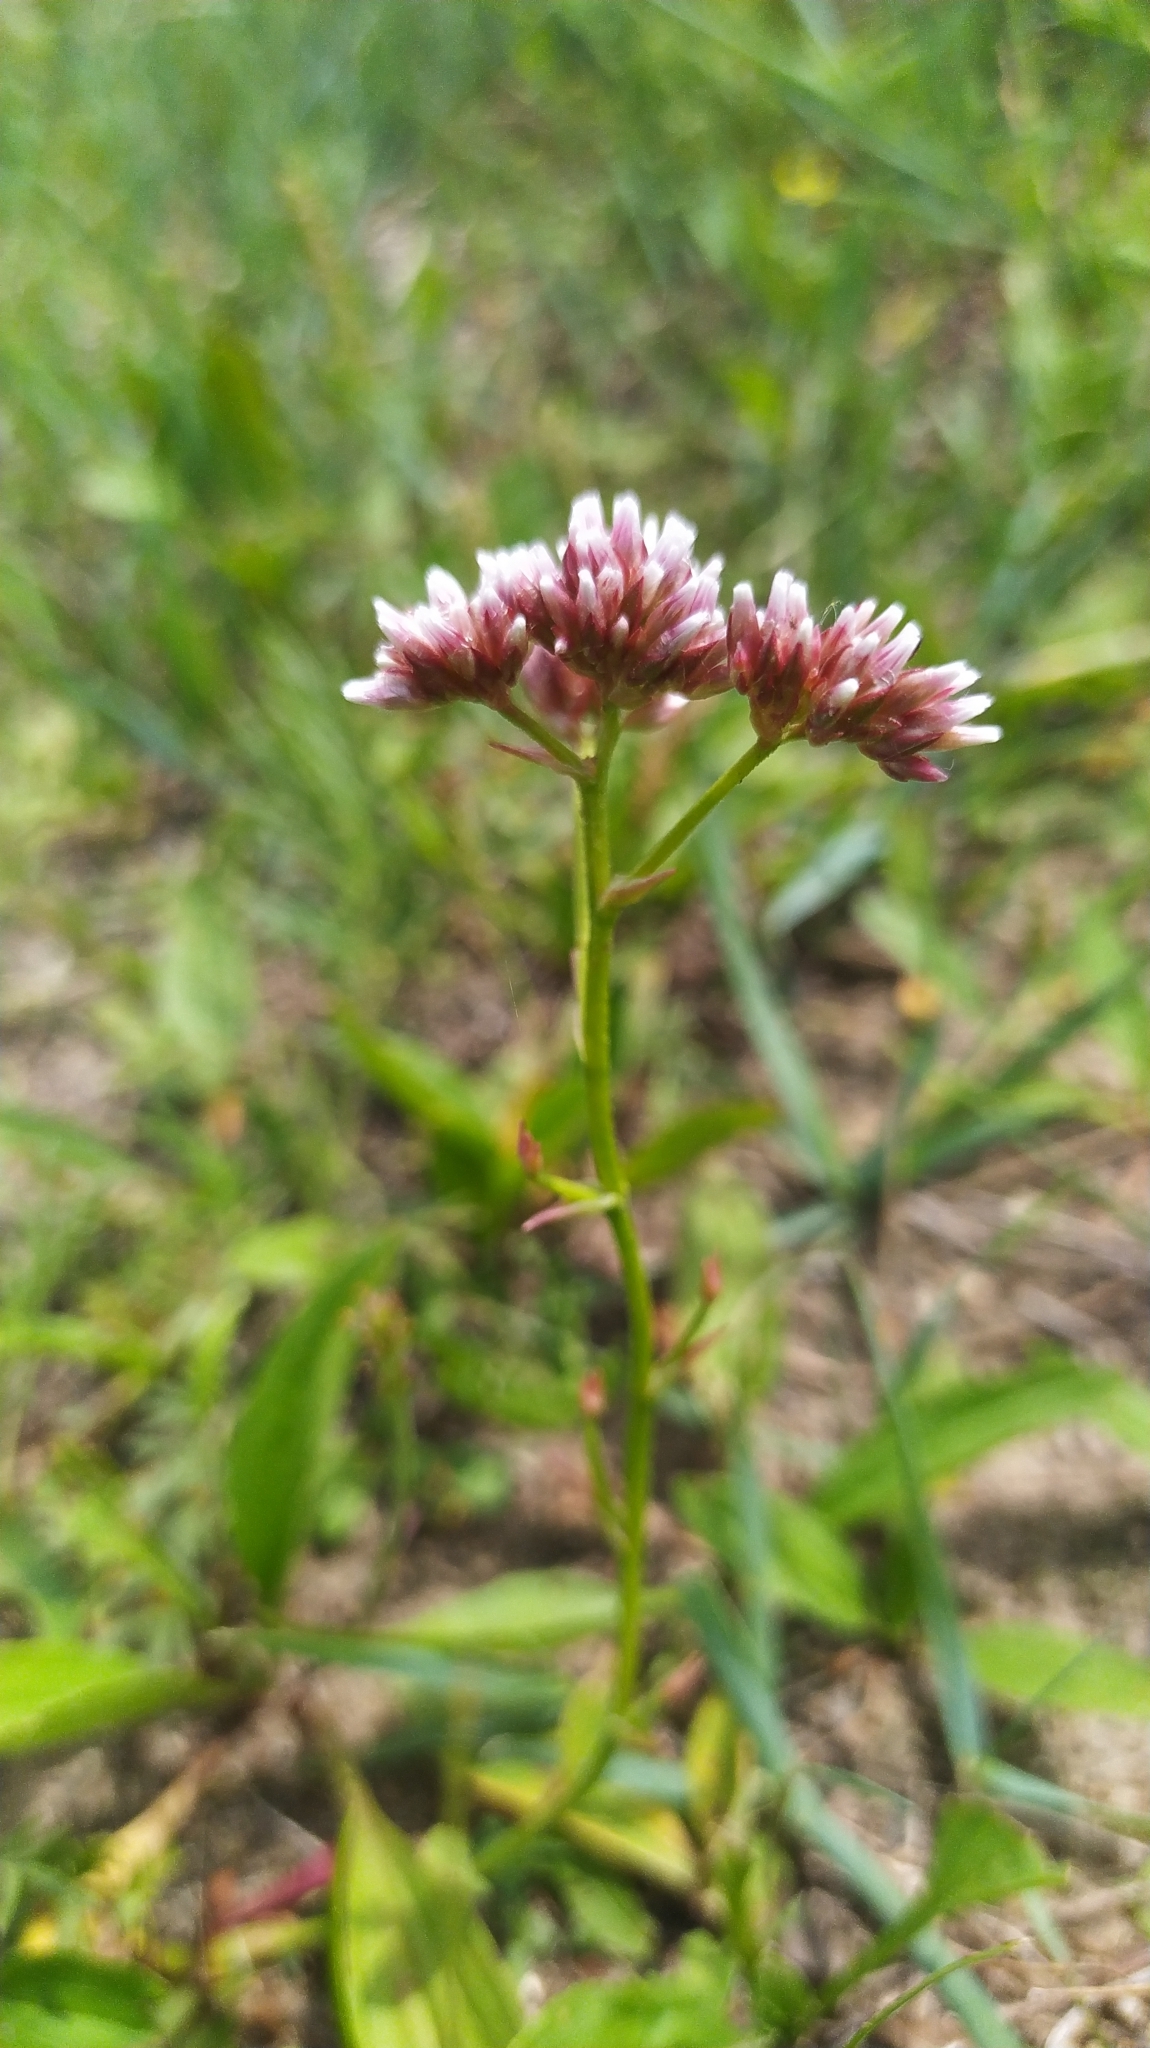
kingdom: Plantae
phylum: Tracheophyta
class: Magnoliopsida
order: Caryophyllales
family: Plumbaginaceae
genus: Limonium
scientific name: Limonium flexuosum
